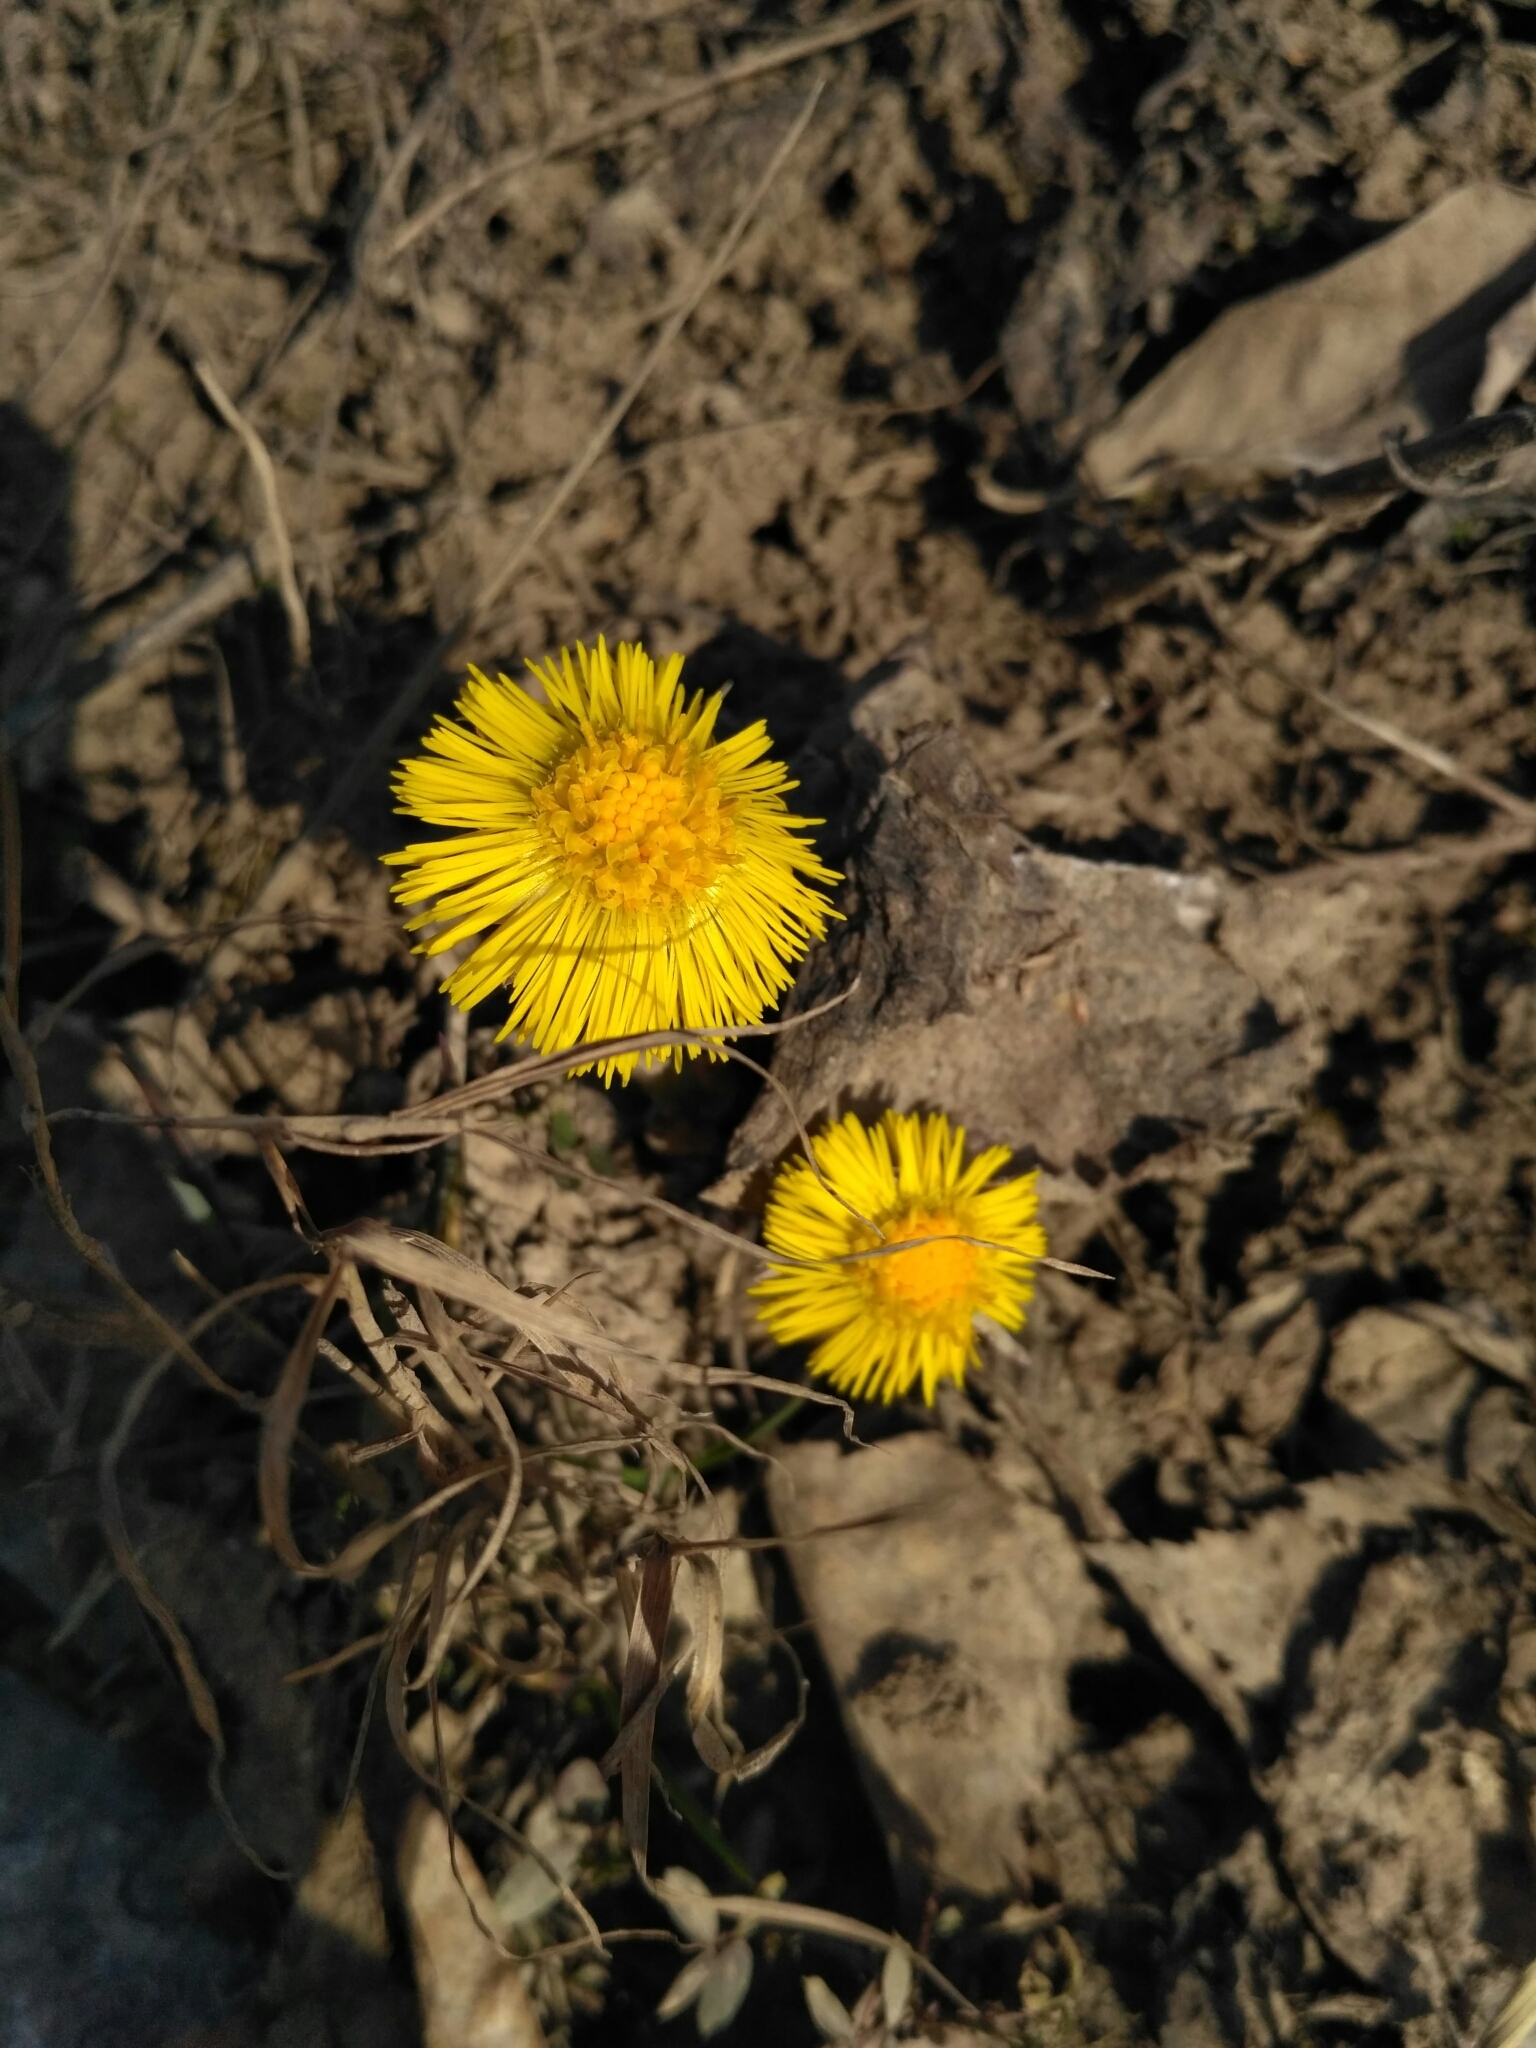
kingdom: Plantae
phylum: Tracheophyta
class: Magnoliopsida
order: Asterales
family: Asteraceae
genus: Tussilago
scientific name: Tussilago farfara
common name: Coltsfoot
